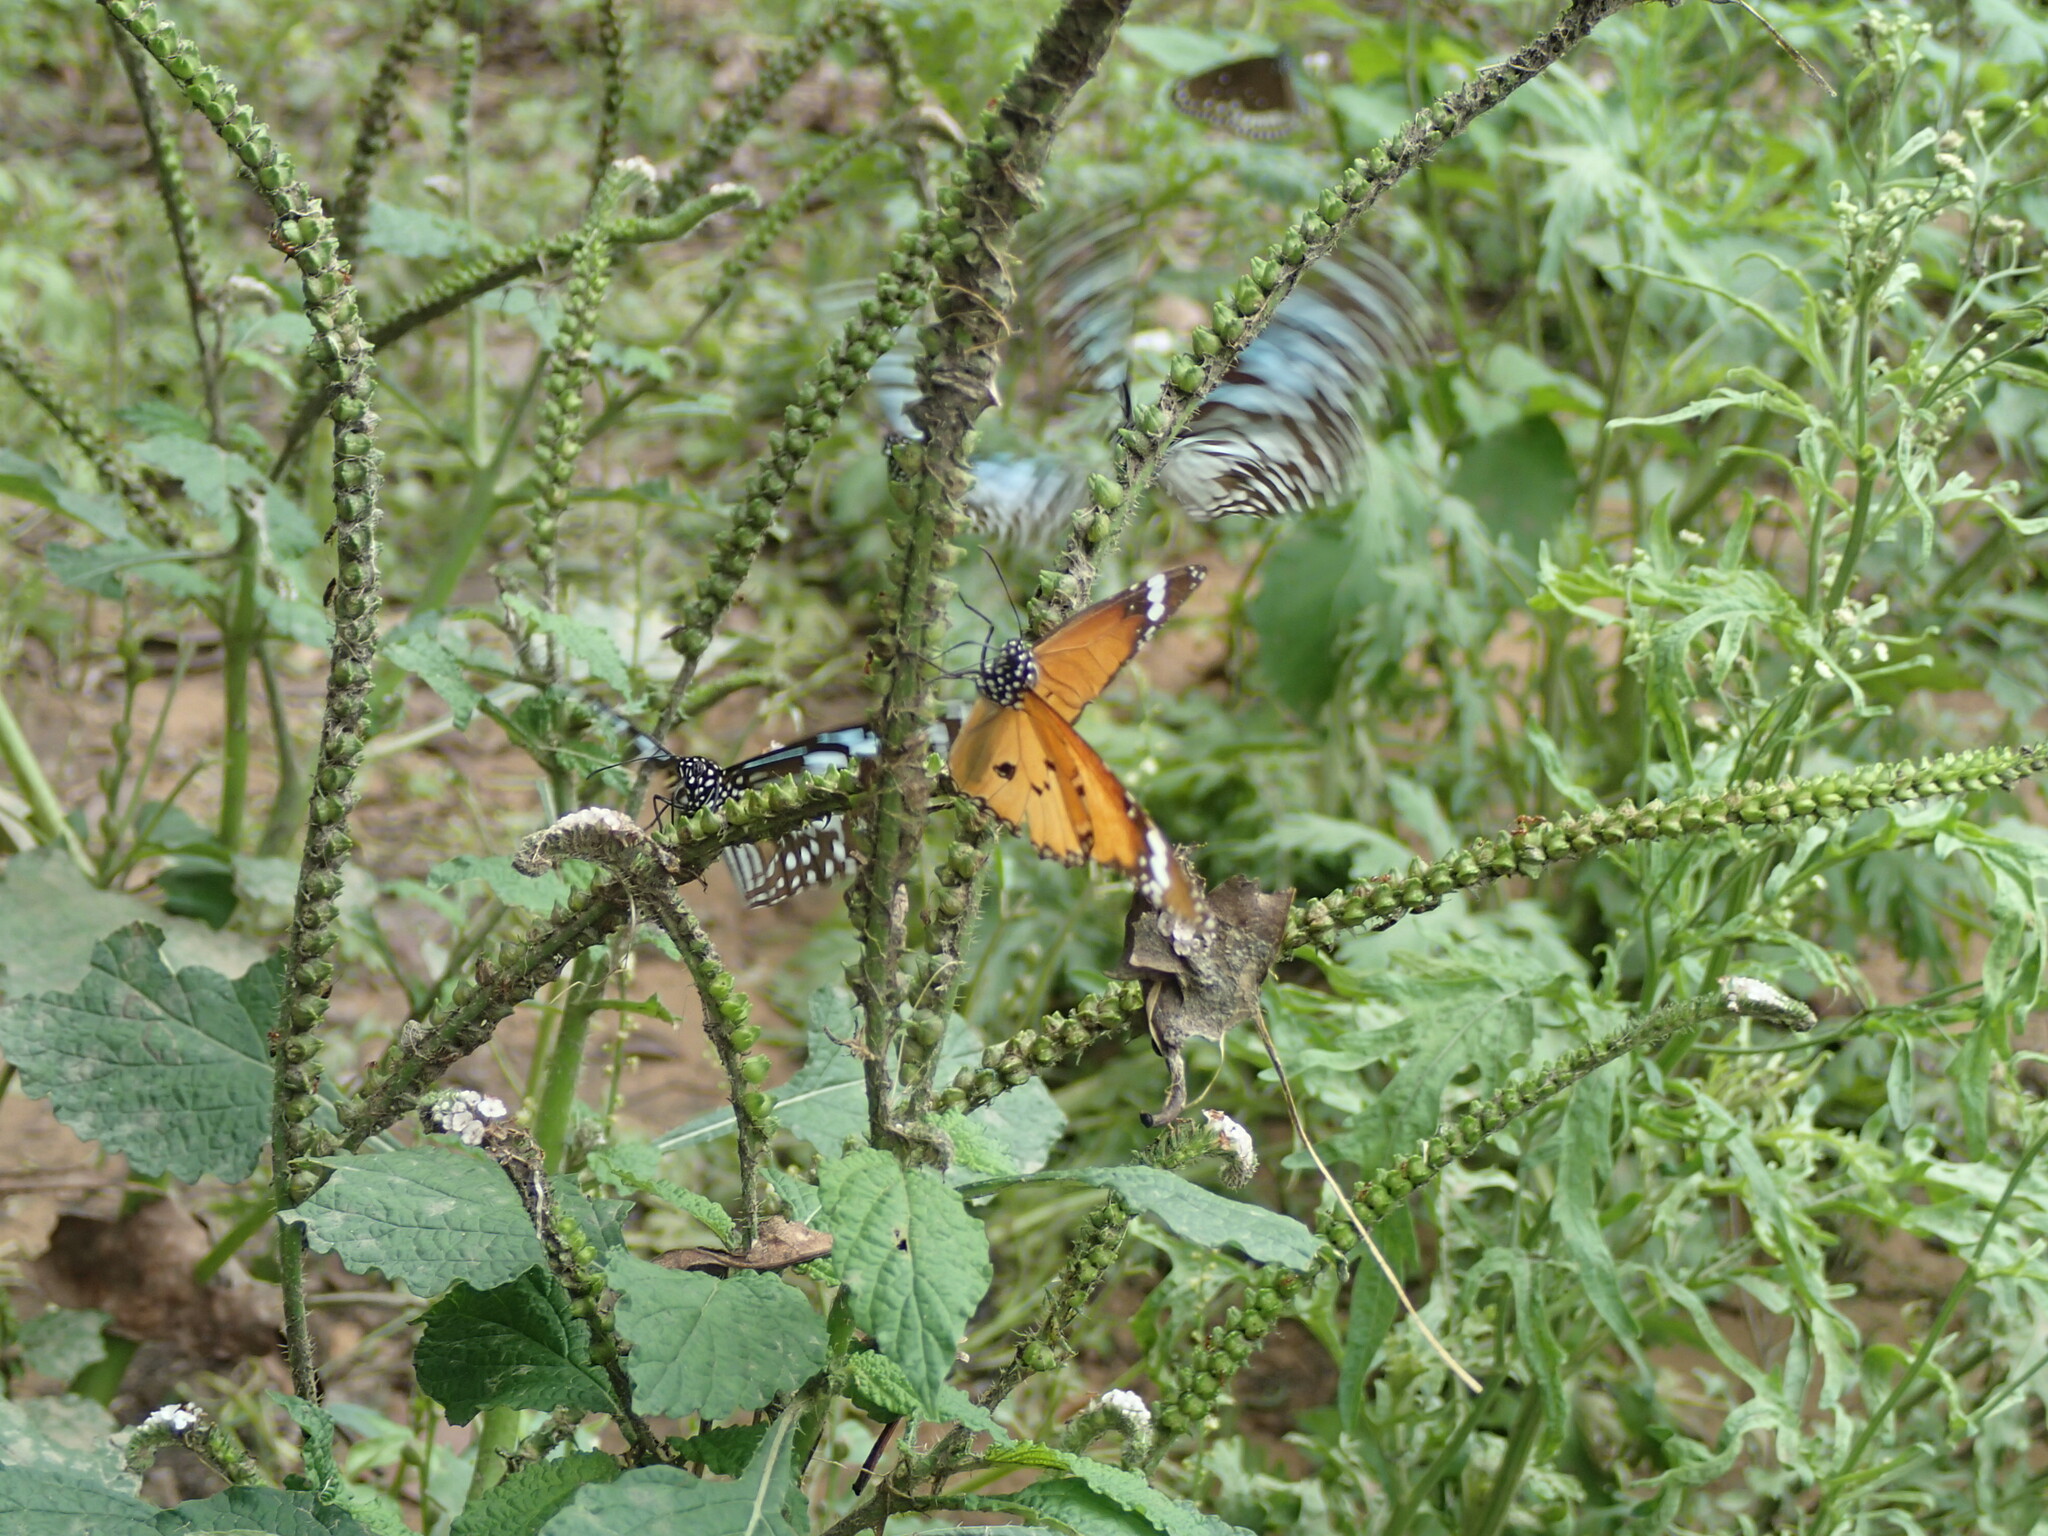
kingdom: Animalia
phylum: Arthropoda
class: Insecta
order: Lepidoptera
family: Nymphalidae
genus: Danaus
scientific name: Danaus chrysippus
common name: Plain tiger
